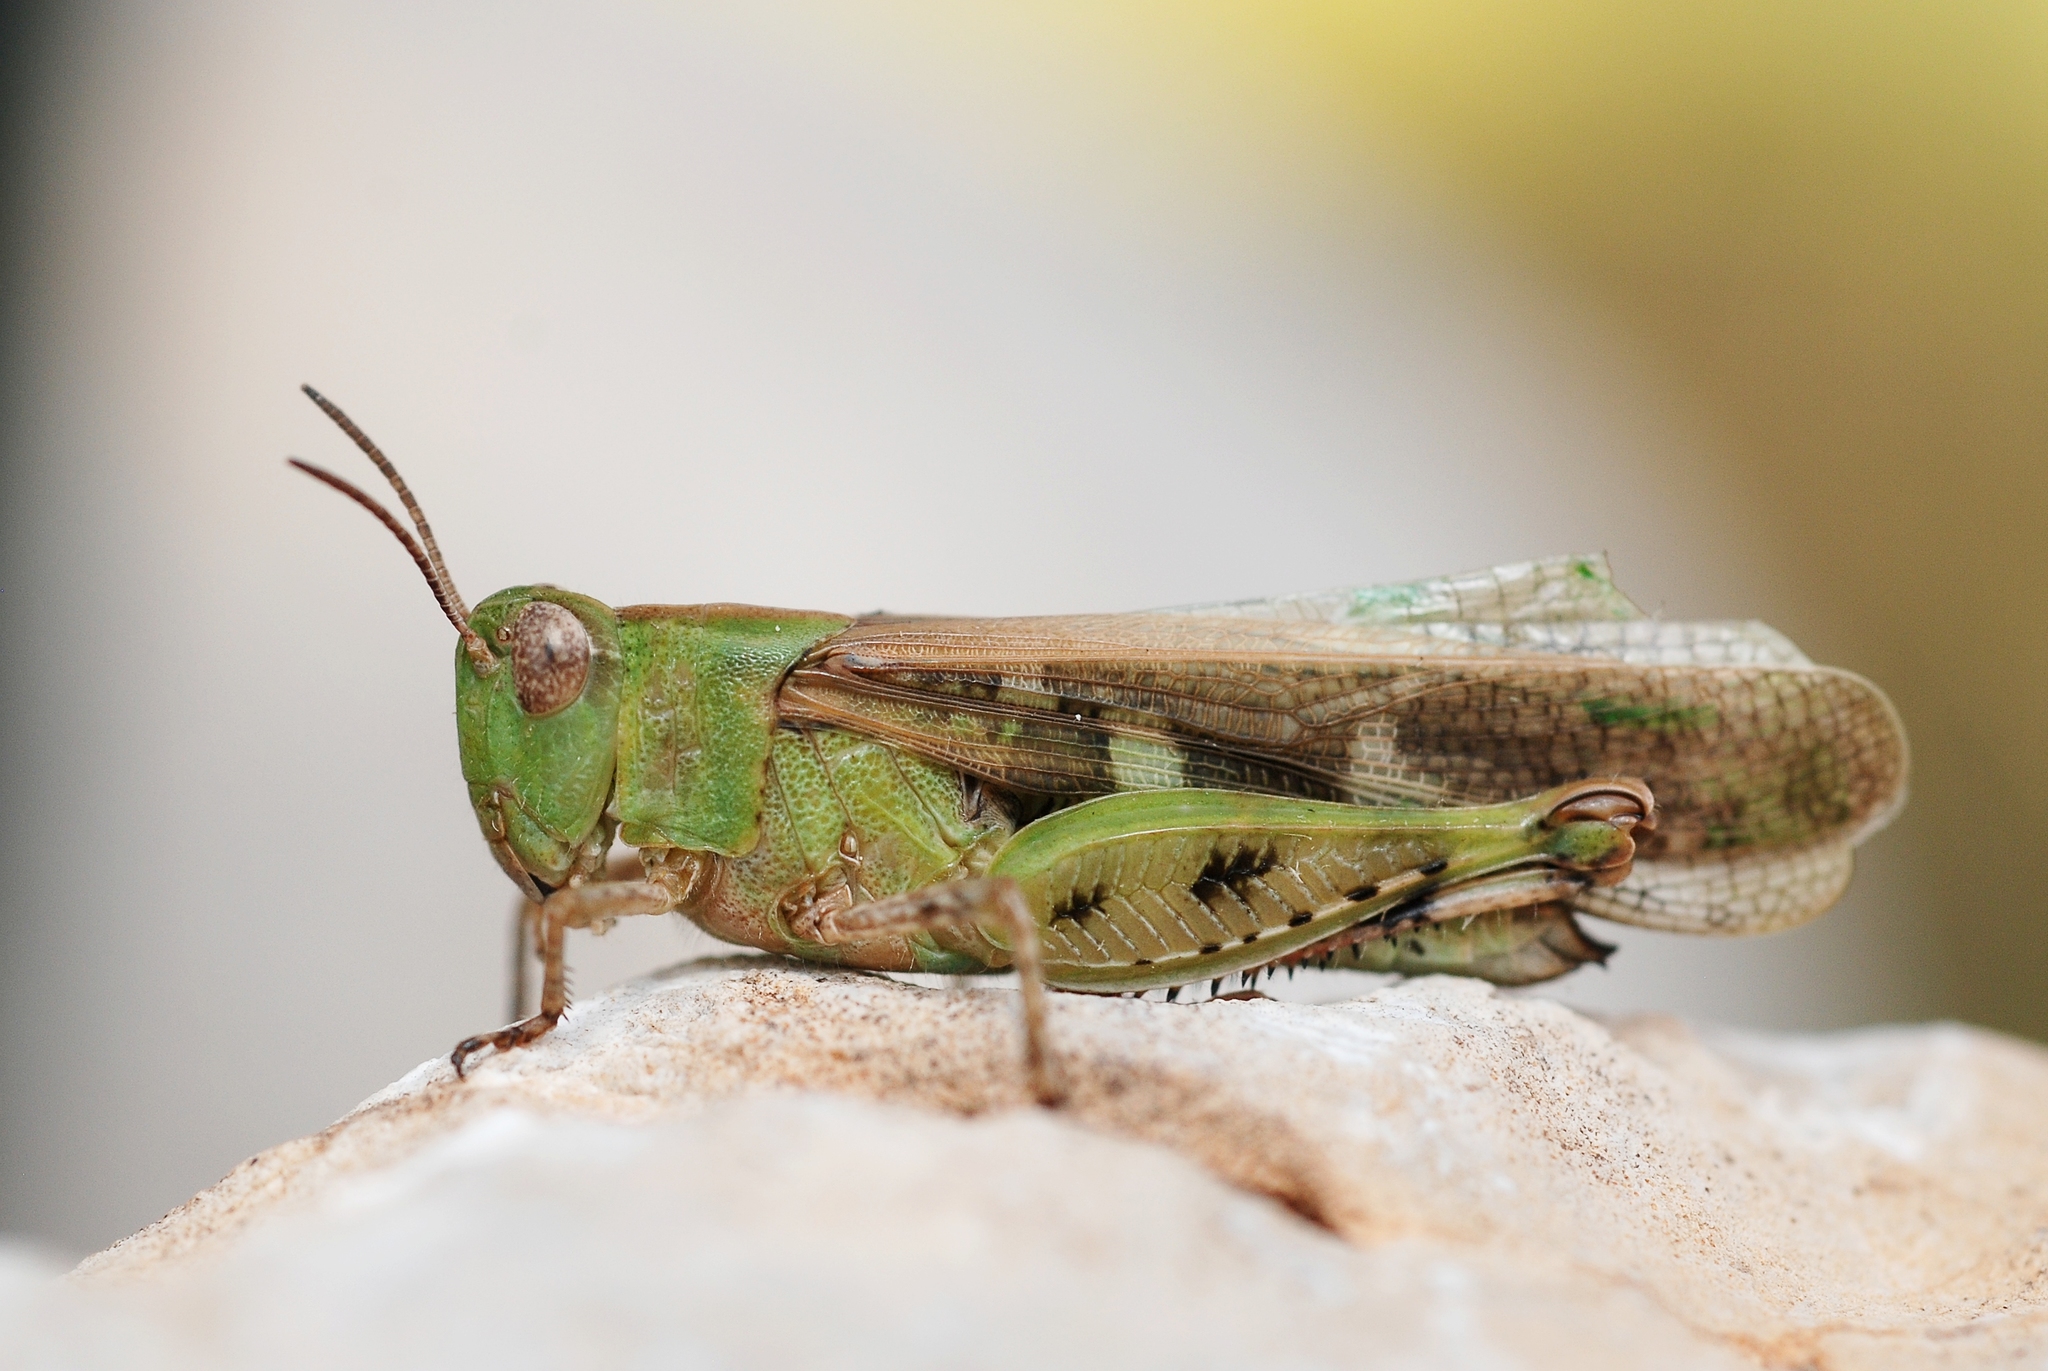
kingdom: Animalia
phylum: Arthropoda
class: Insecta
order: Orthoptera
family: Acrididae
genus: Aiolopus
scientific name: Aiolopus strepens
